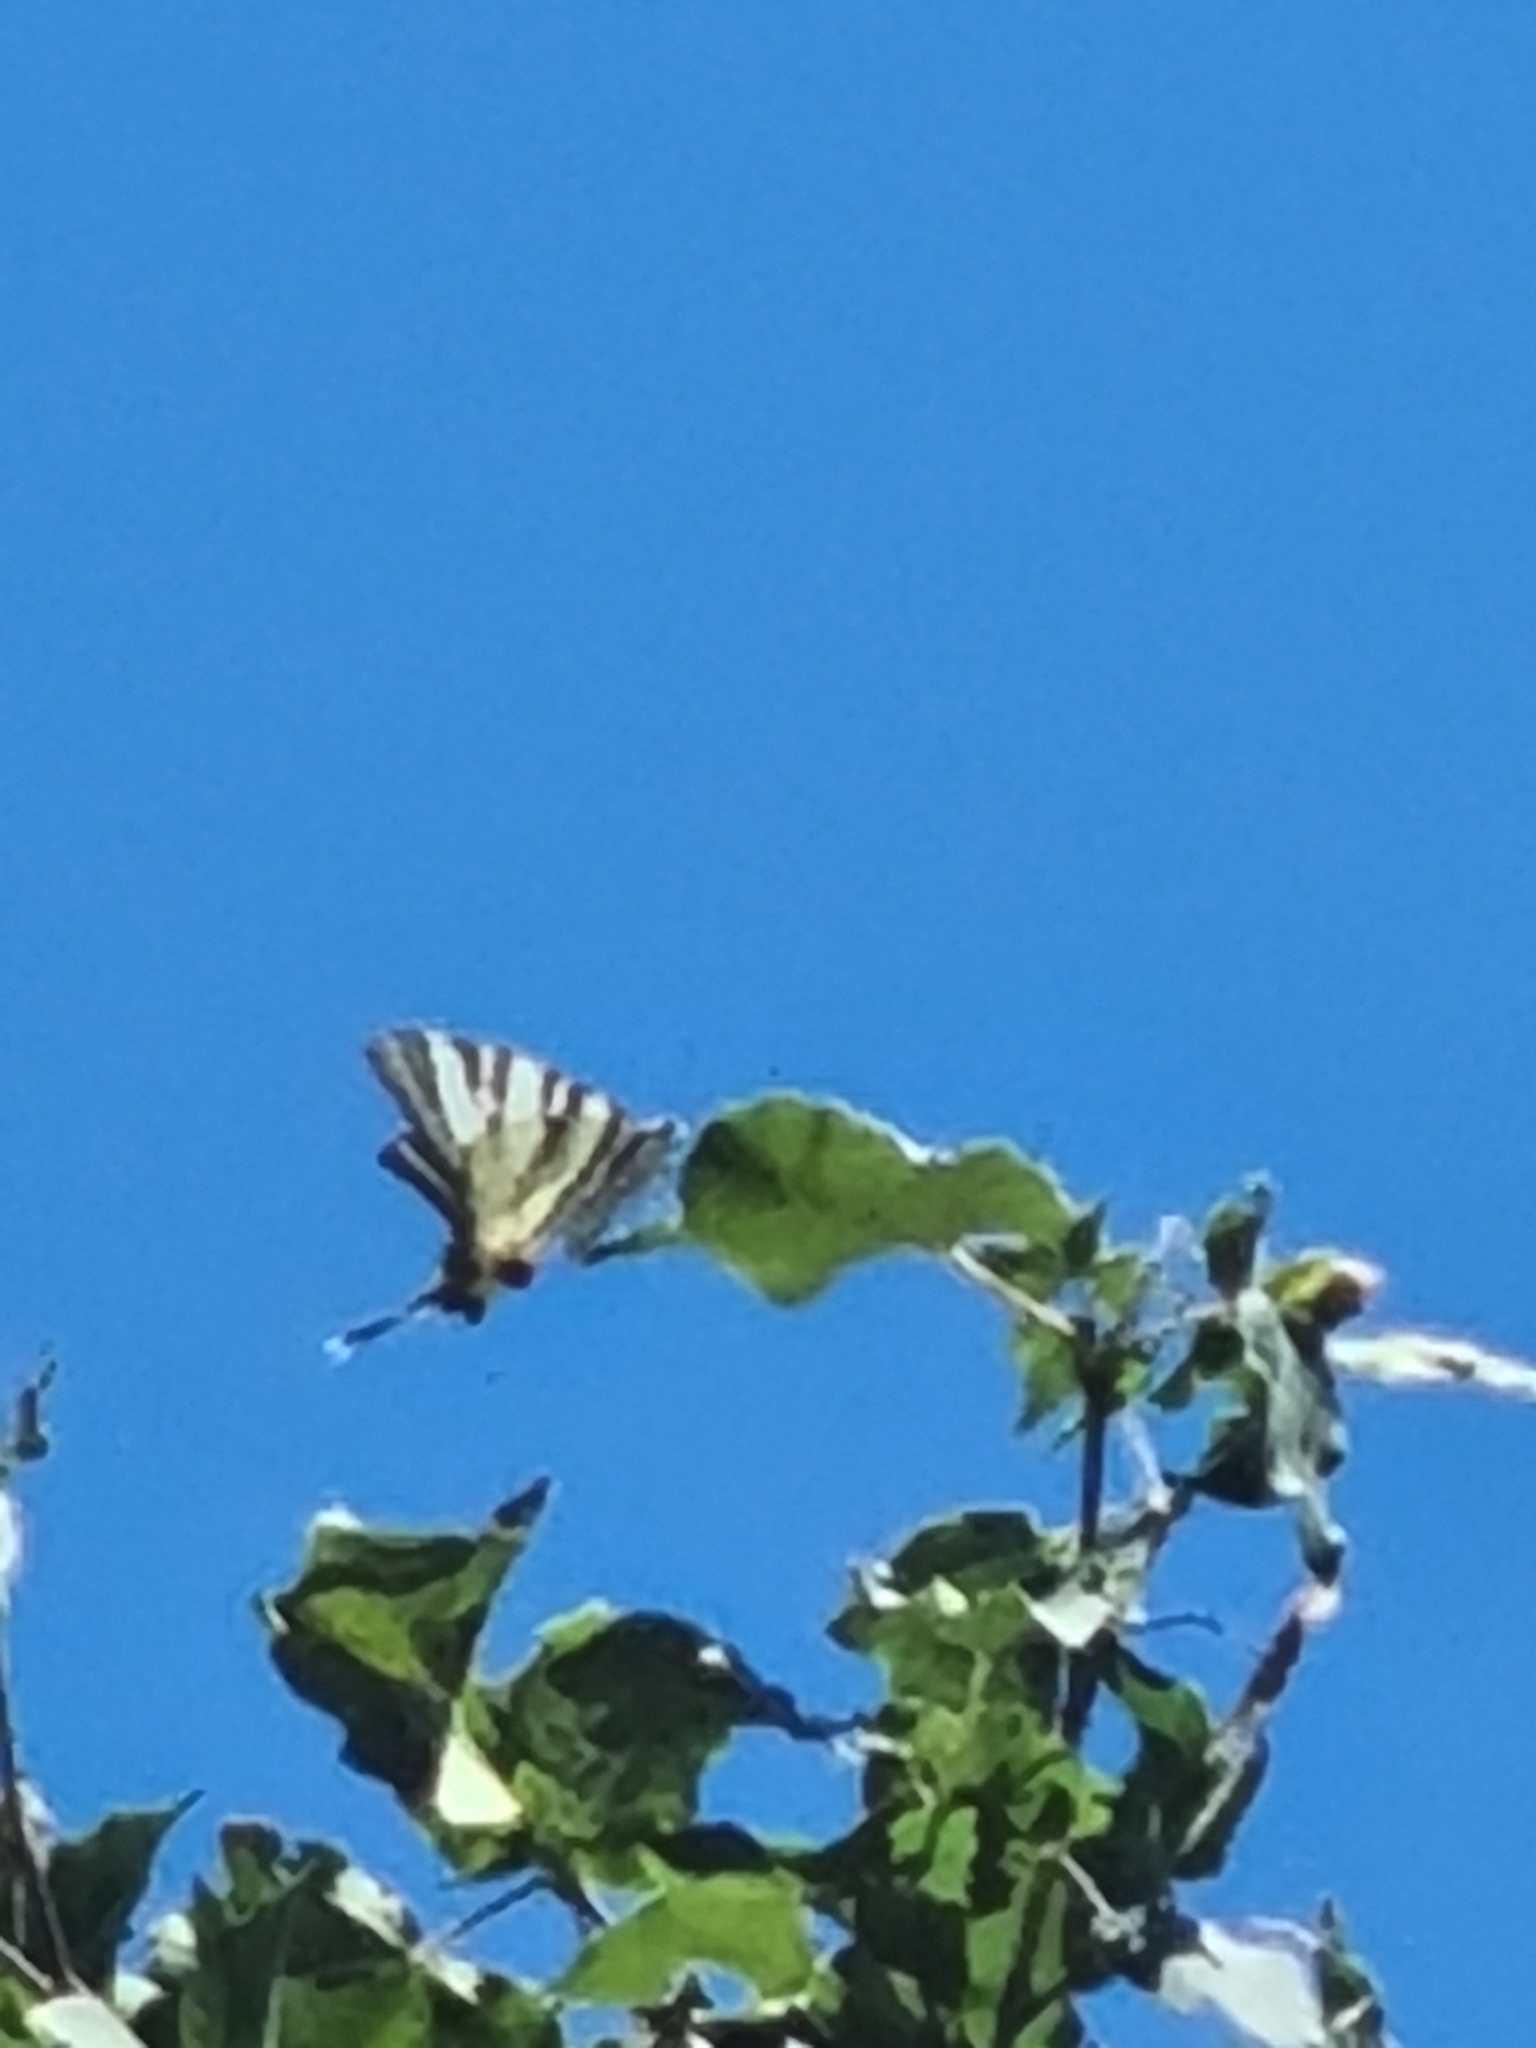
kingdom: Animalia
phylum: Arthropoda
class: Insecta
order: Lepidoptera
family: Papilionidae
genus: Iphiclides
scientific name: Iphiclides podalirius
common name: Scarce swallowtail
